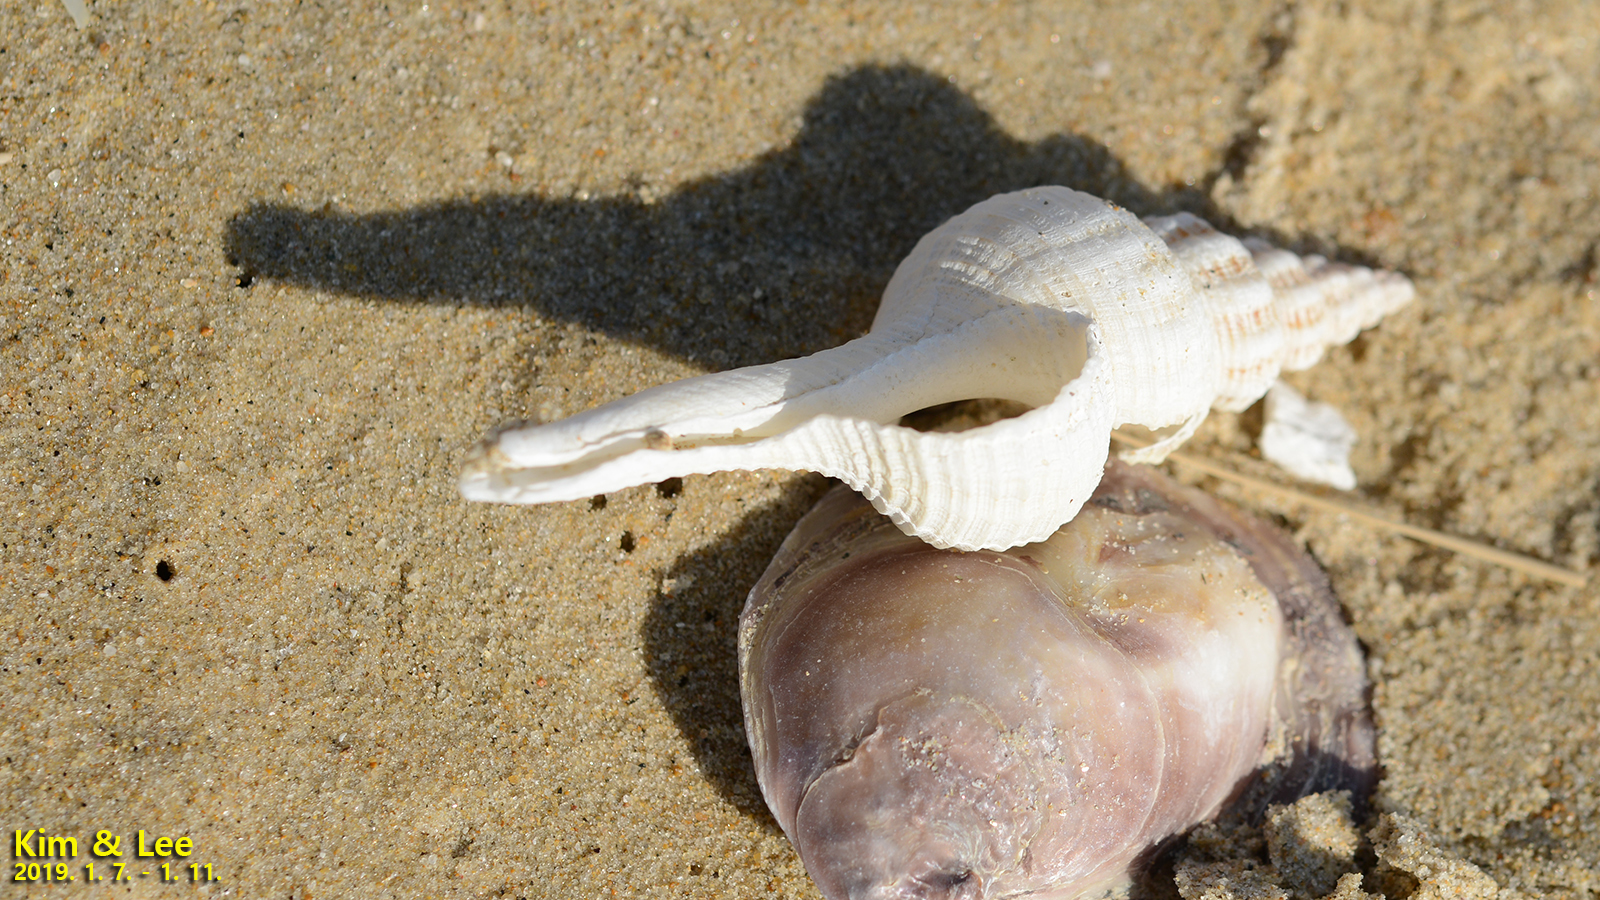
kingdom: Animalia
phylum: Mollusca
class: Gastropoda
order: Neogastropoda
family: Fasciolariidae
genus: Fusinus
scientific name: Fusinus ferrugineus
